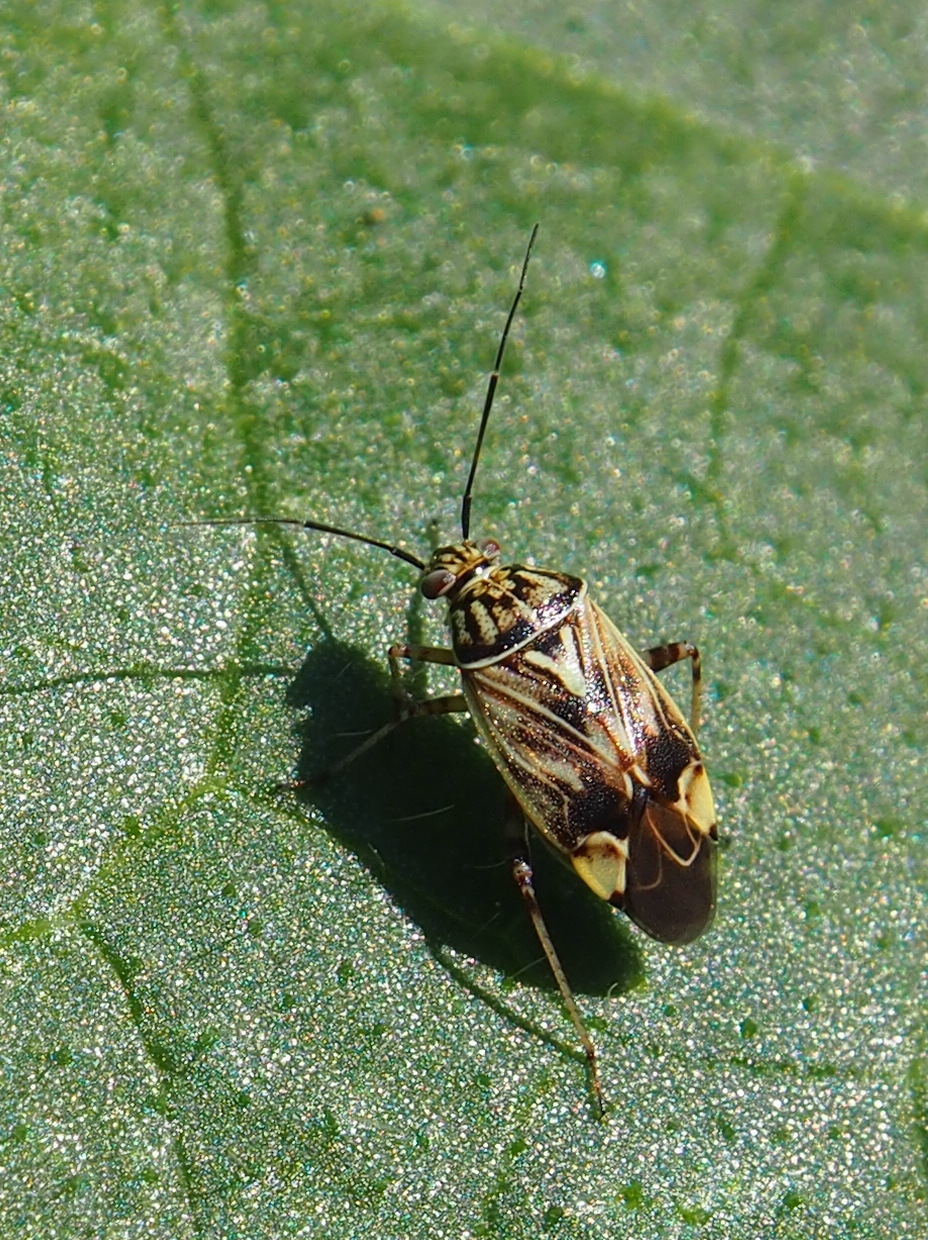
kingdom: Animalia
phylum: Arthropoda
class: Insecta
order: Hemiptera
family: Miridae
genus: Lygus
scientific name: Lygus lineolaris
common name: North american tarnished plant bug
